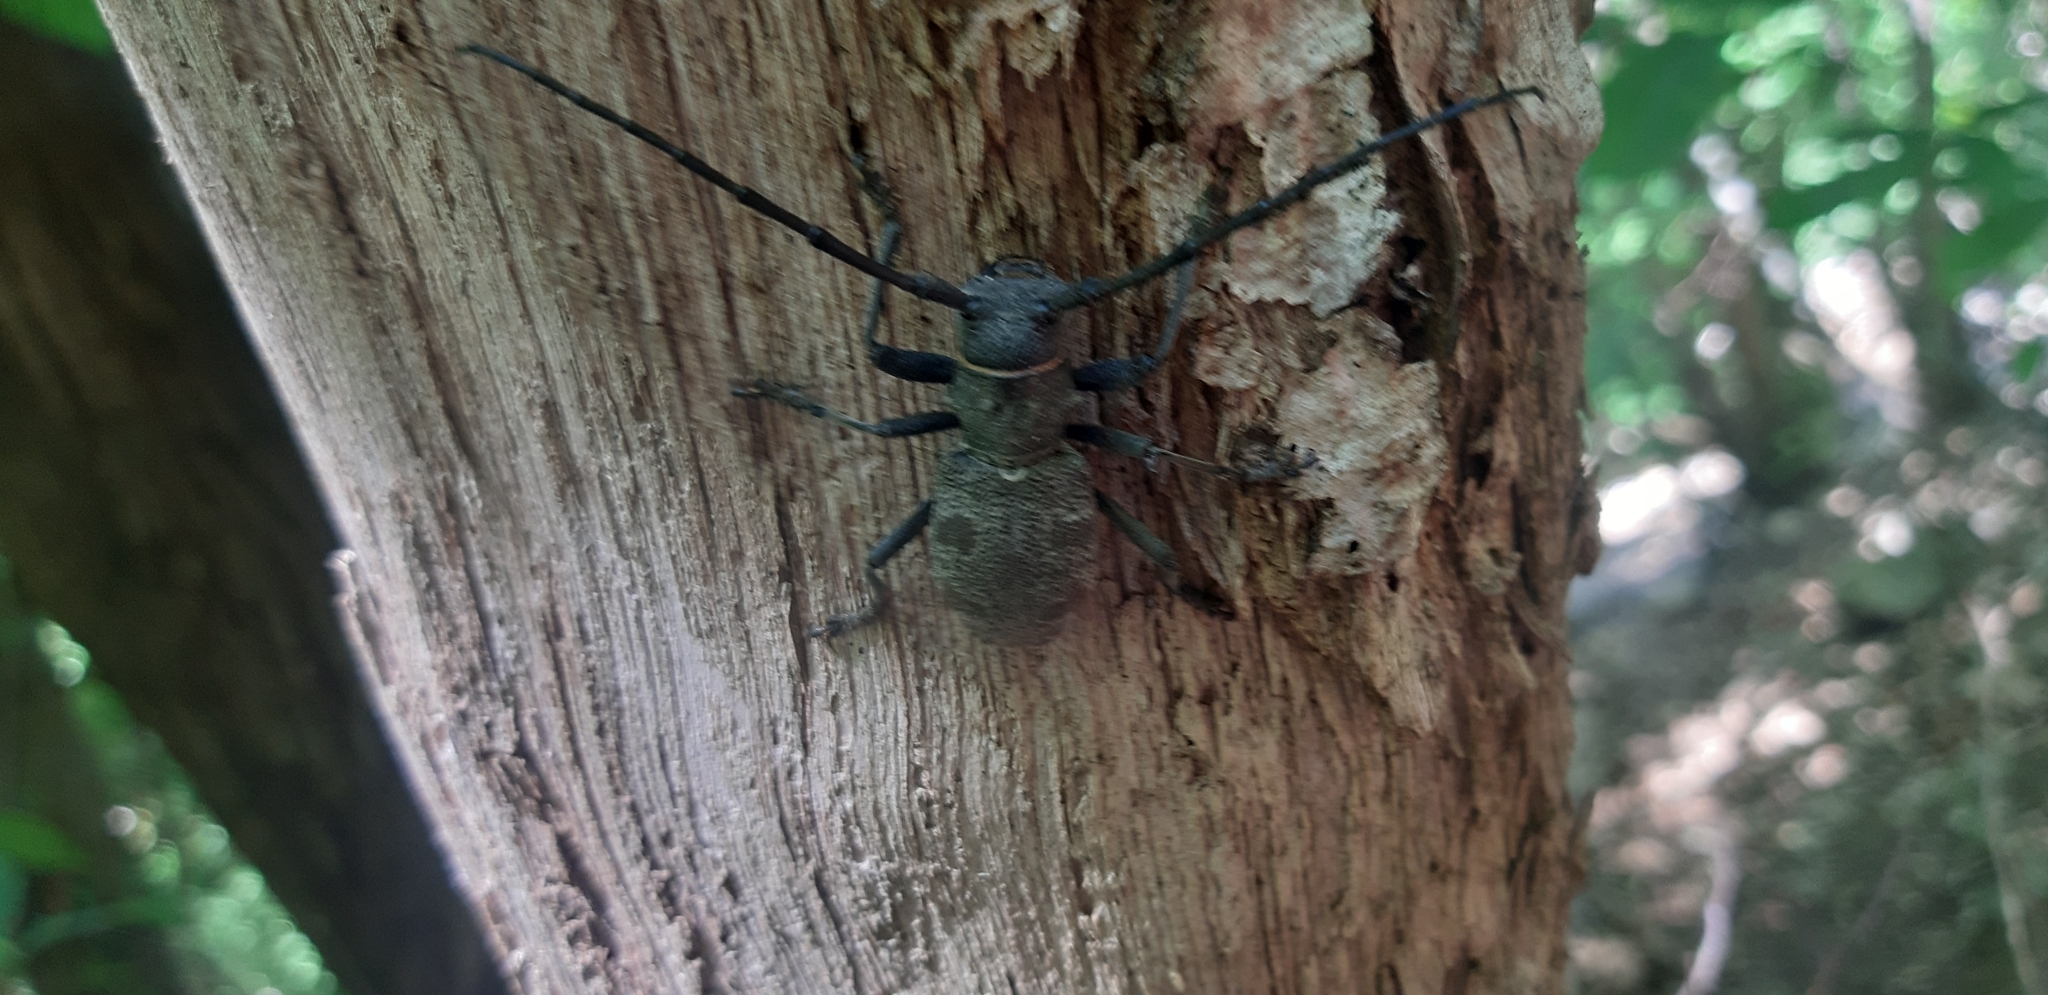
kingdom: Animalia
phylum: Arthropoda
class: Insecta
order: Coleoptera
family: Cerambycidae
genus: Morimus
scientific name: Morimus asper
